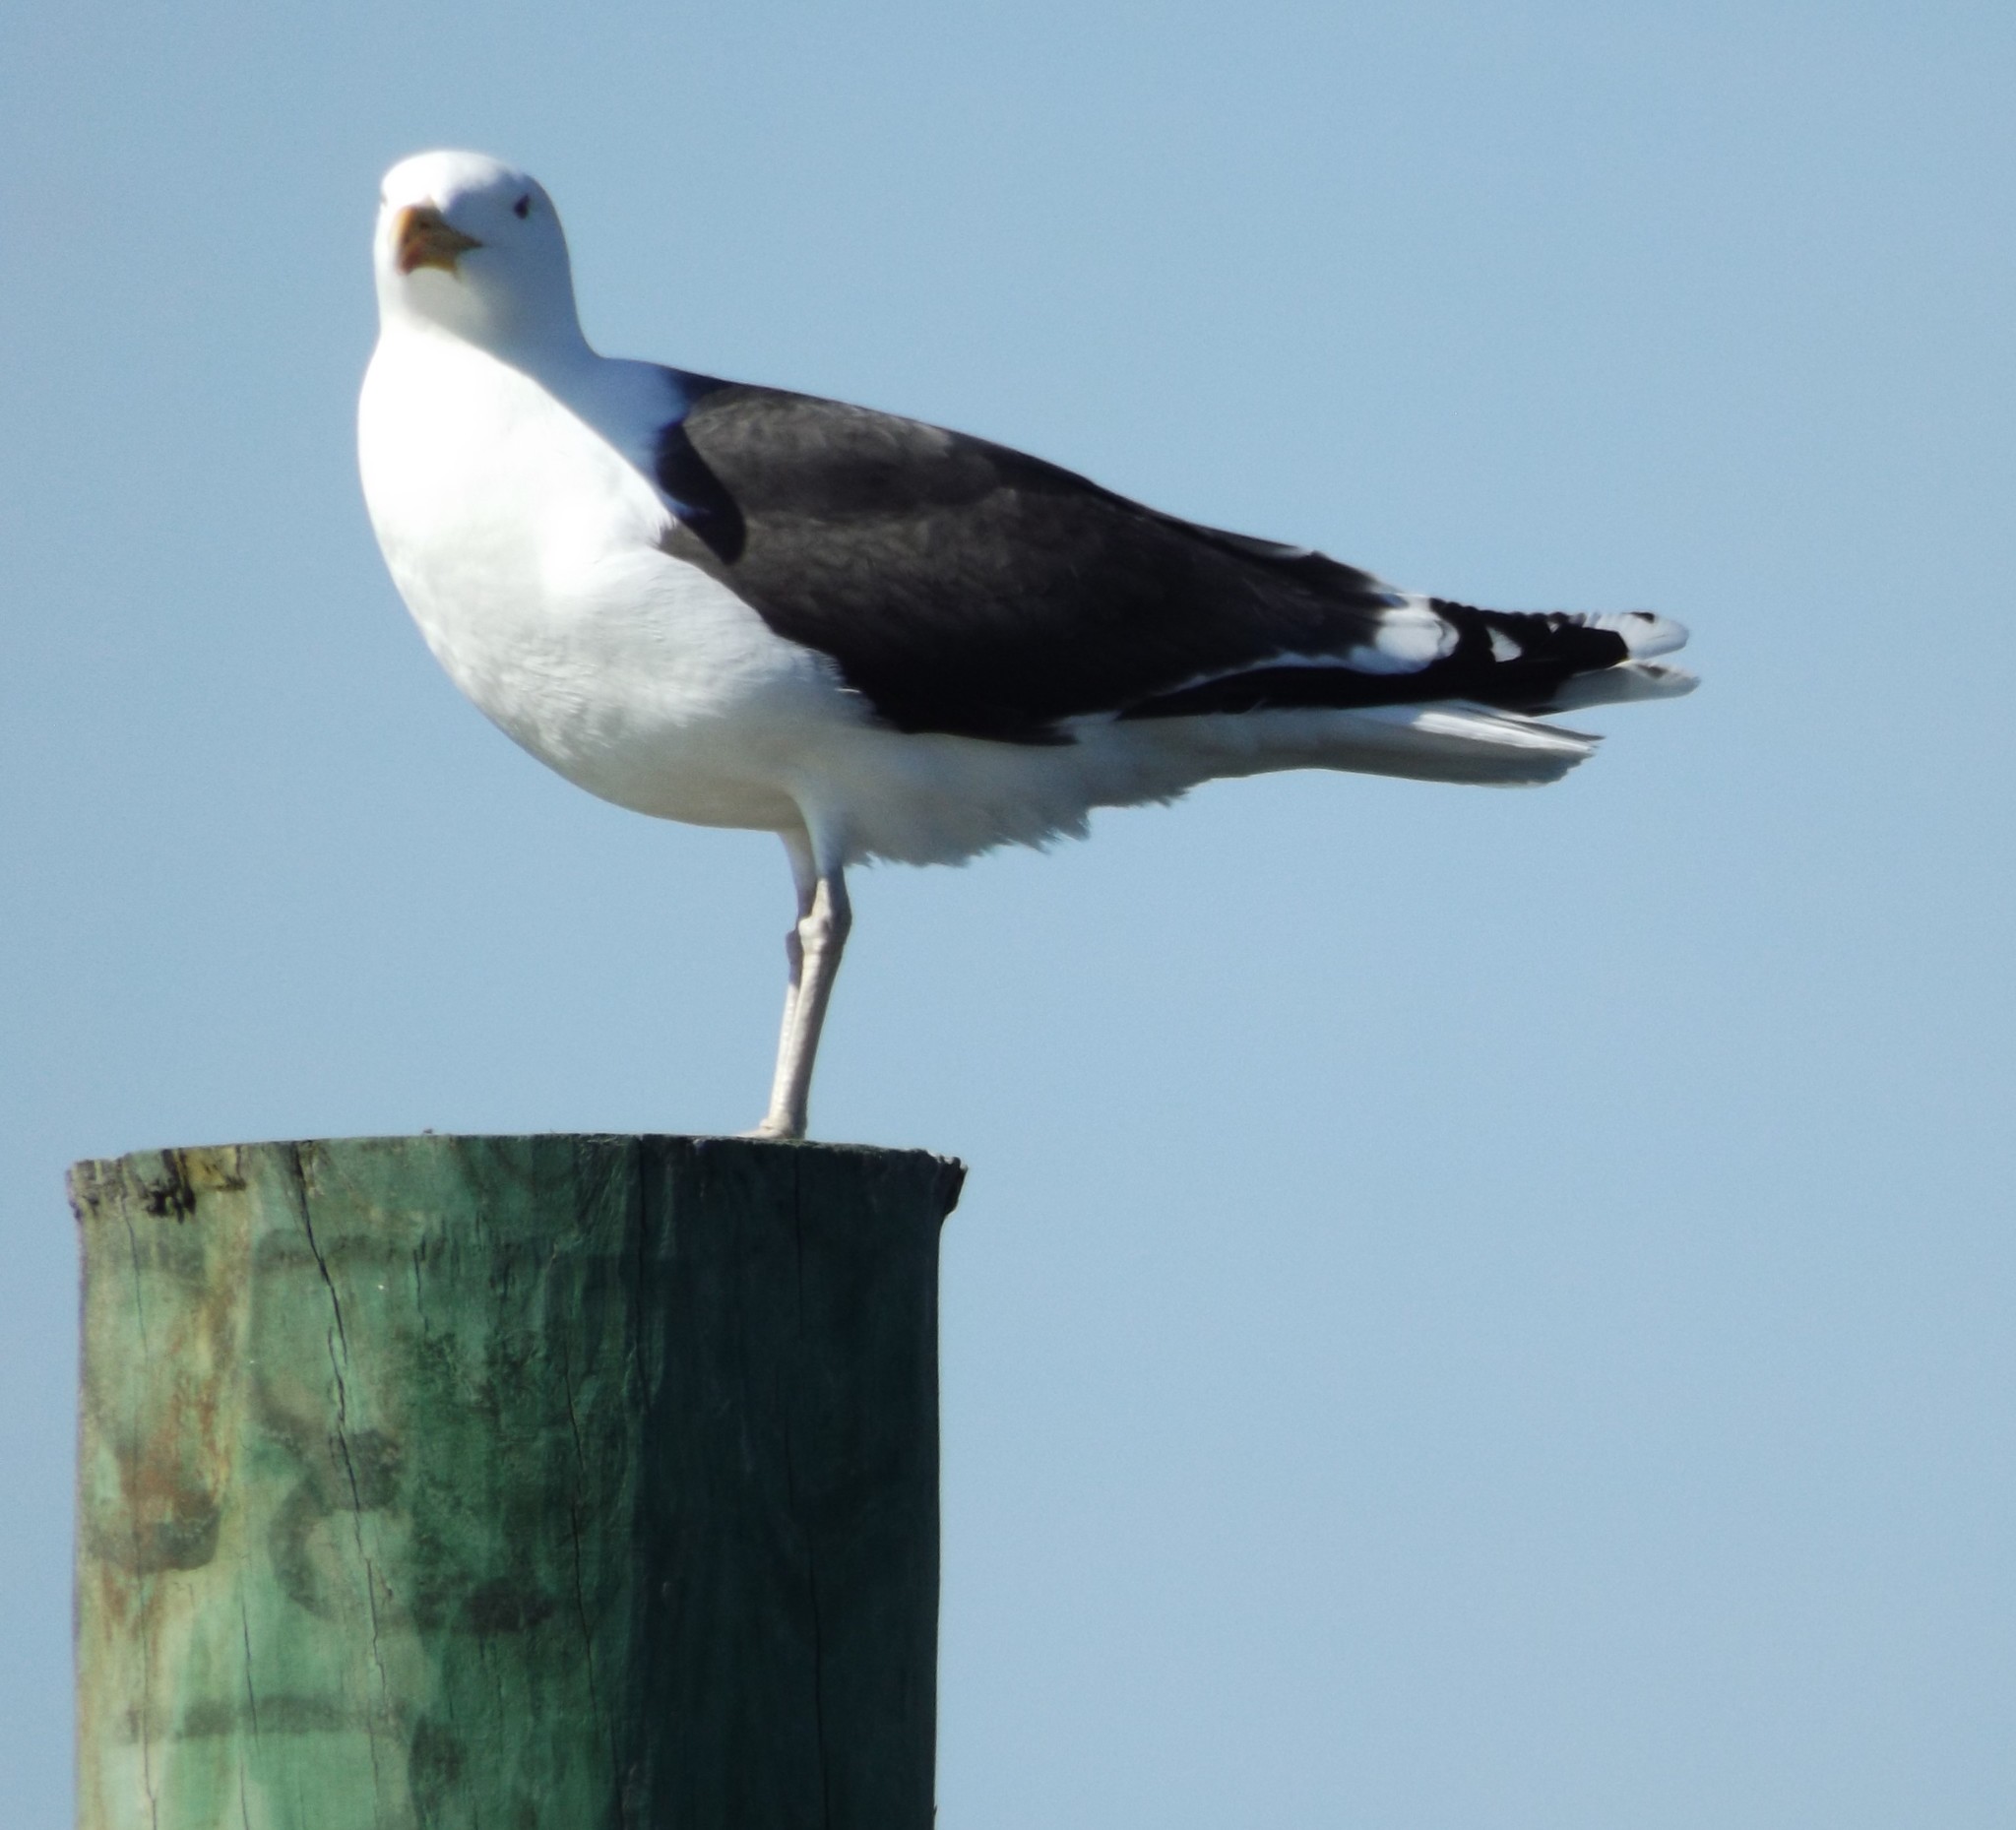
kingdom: Animalia
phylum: Chordata
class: Aves
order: Charadriiformes
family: Laridae
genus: Larus
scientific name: Larus marinus
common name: Great black-backed gull
